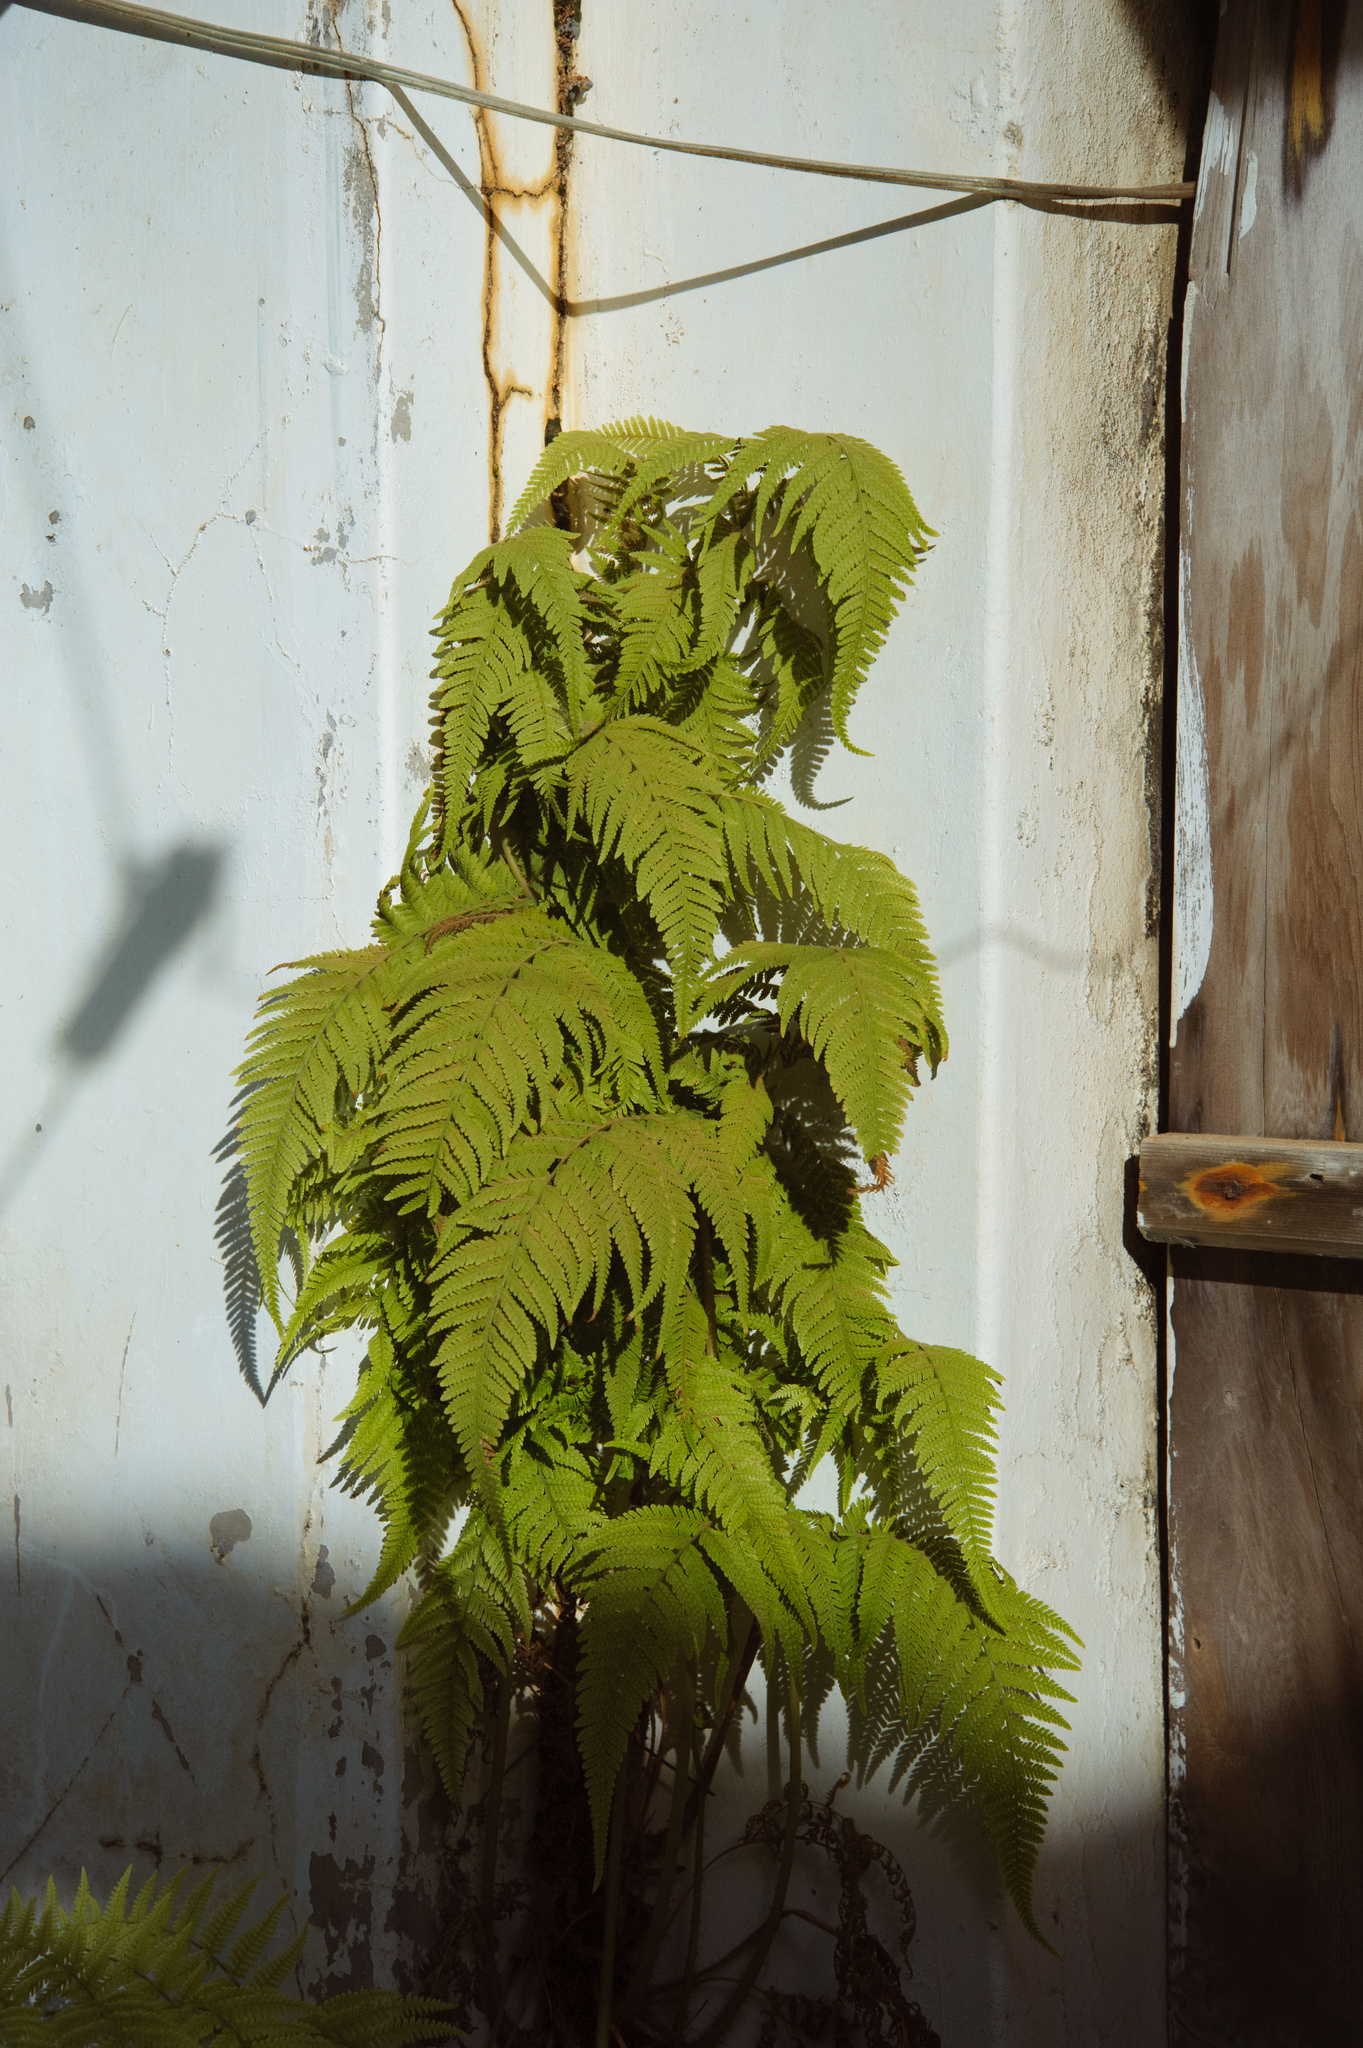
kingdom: Plantae
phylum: Tracheophyta
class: Polypodiopsida
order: Polypodiales
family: Thelypteridaceae
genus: Macrothelypteris
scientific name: Macrothelypteris torresiana
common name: Swordfern
